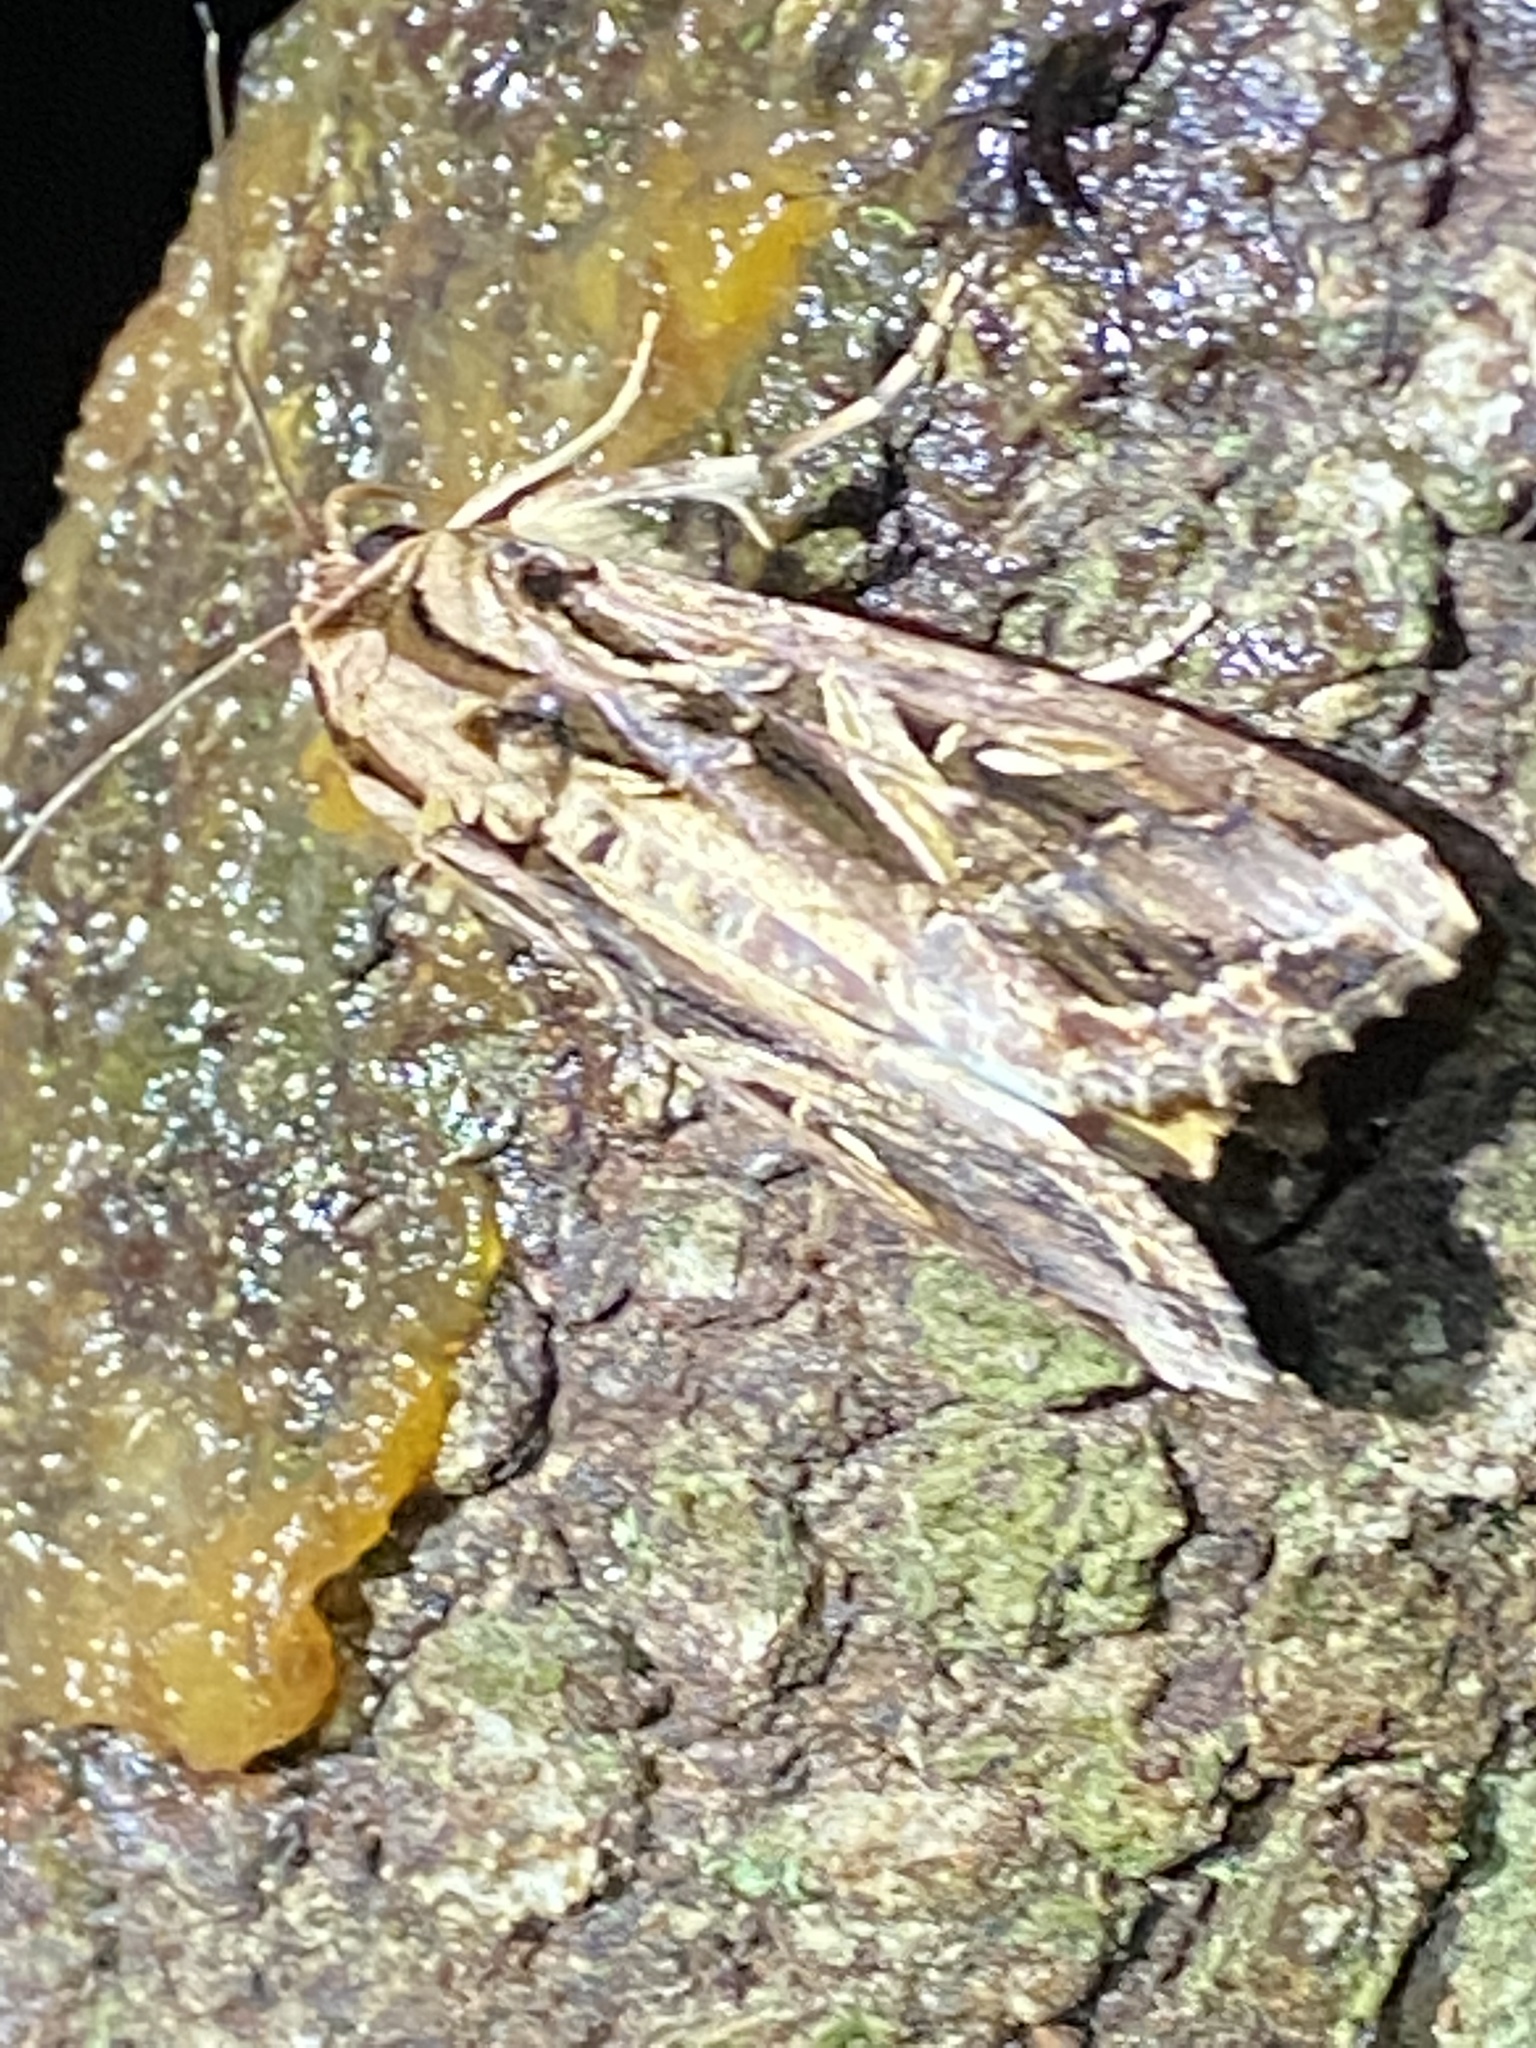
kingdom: Animalia
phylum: Arthropoda
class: Insecta
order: Lepidoptera
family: Noctuidae
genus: Spodoptera
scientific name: Spodoptera dolichos
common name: Sweetpotato armyworm
